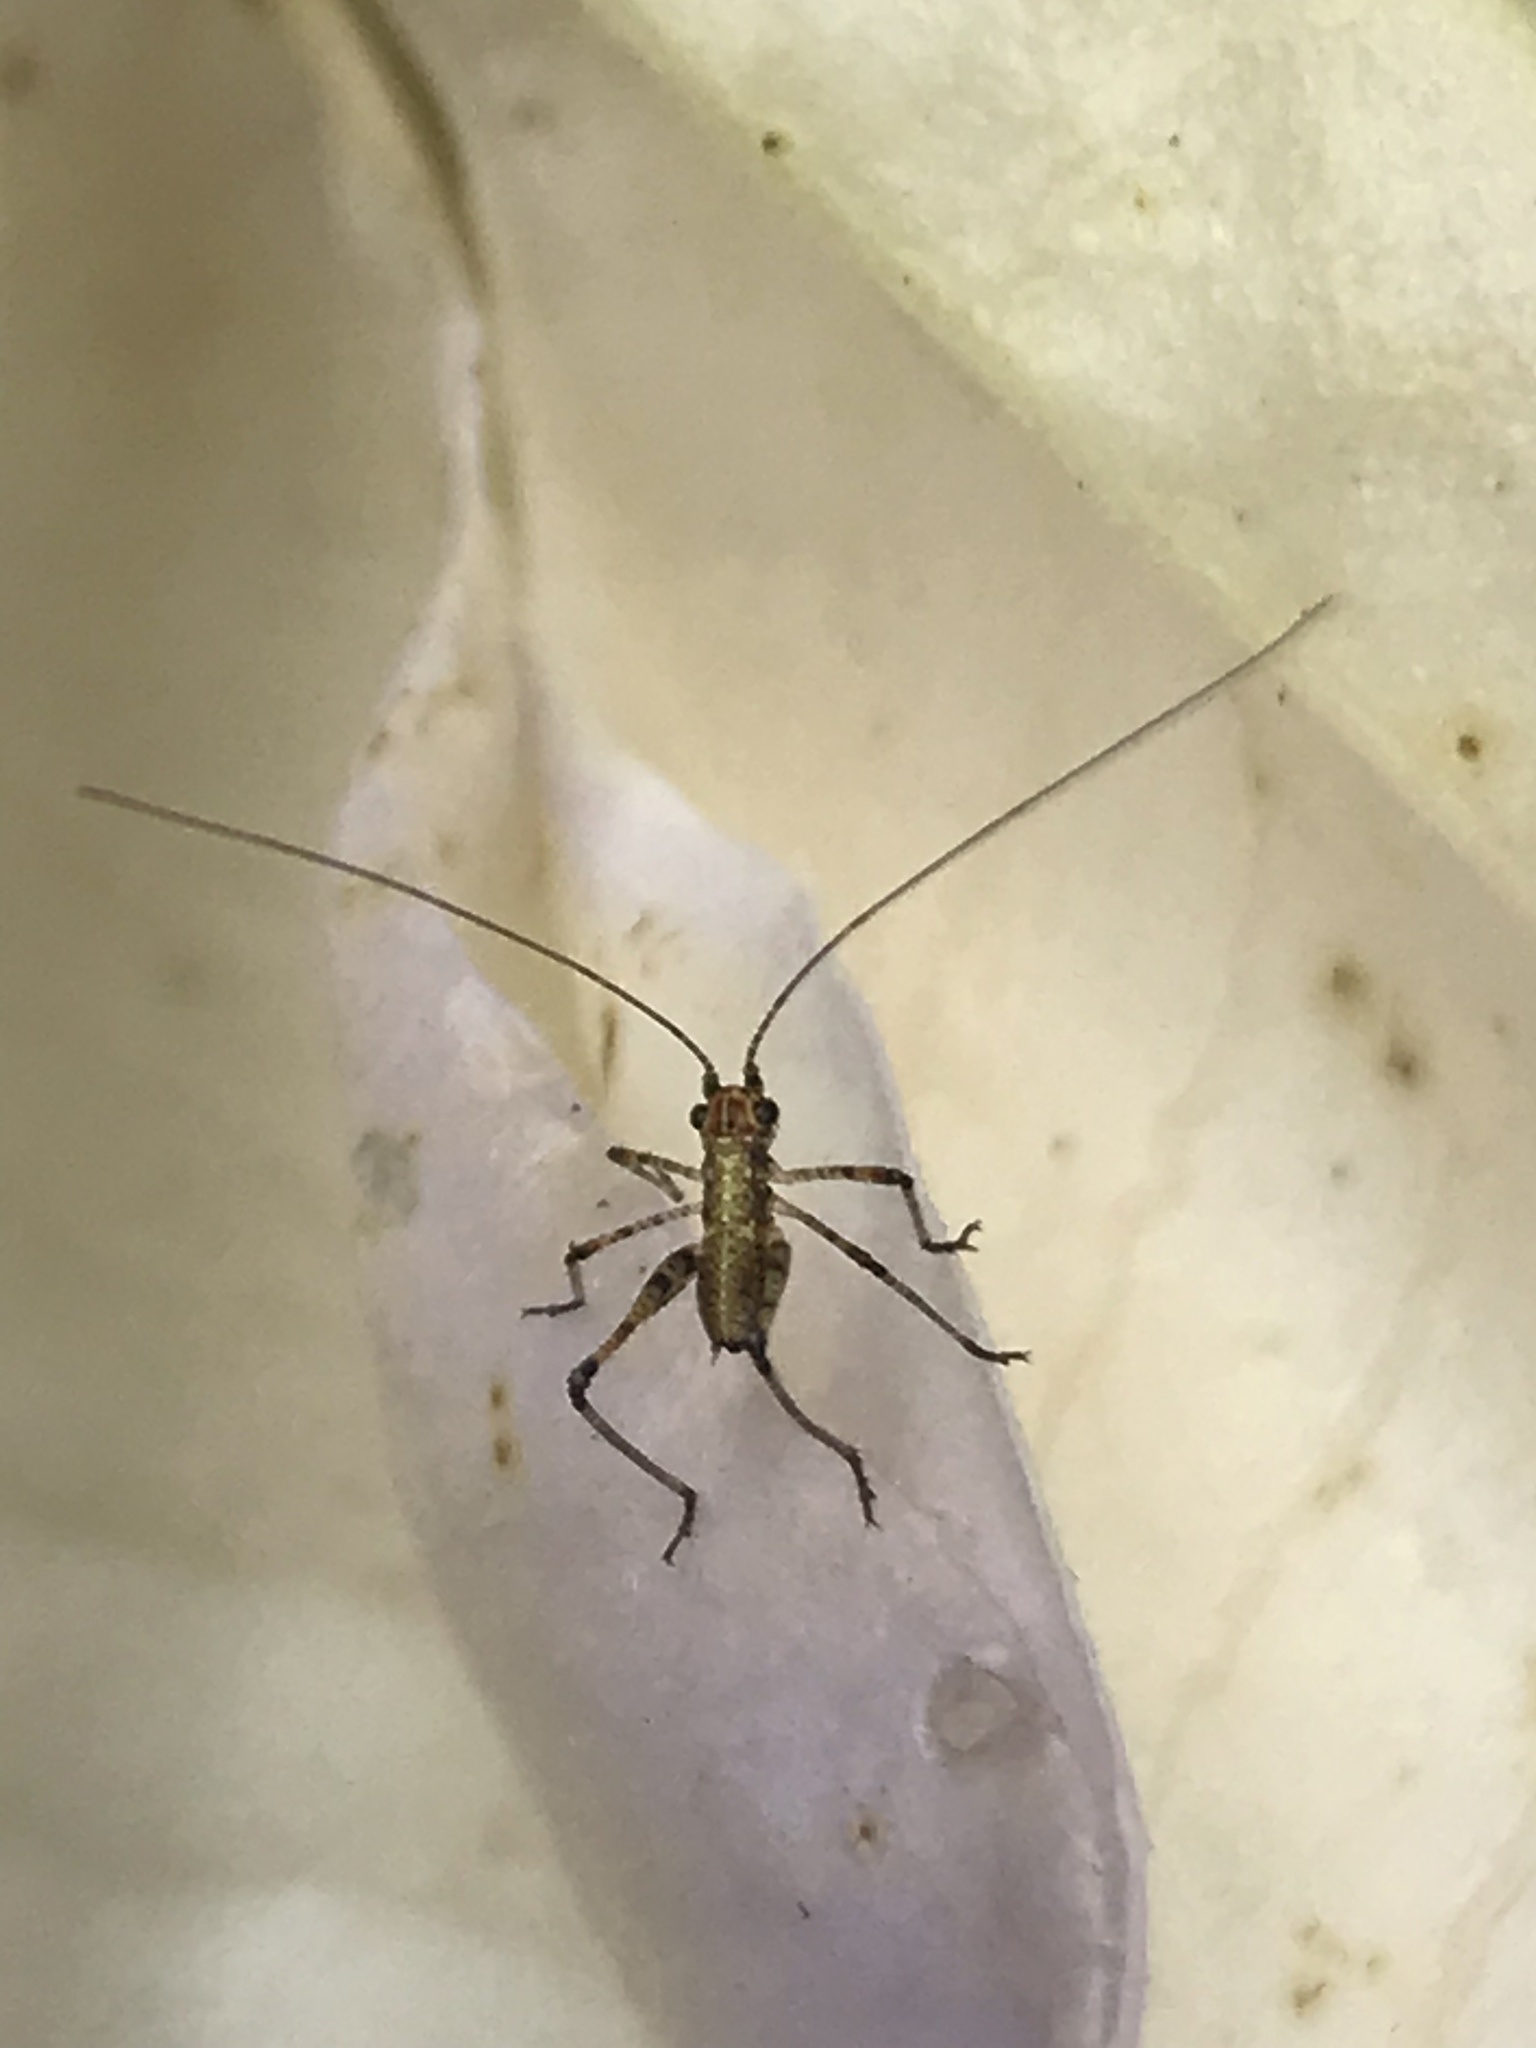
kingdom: Animalia
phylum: Arthropoda
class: Insecta
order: Orthoptera
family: Tettigoniidae
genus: Phaneroptera
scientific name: Phaneroptera nana
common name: Southern sickle bush-cricket
